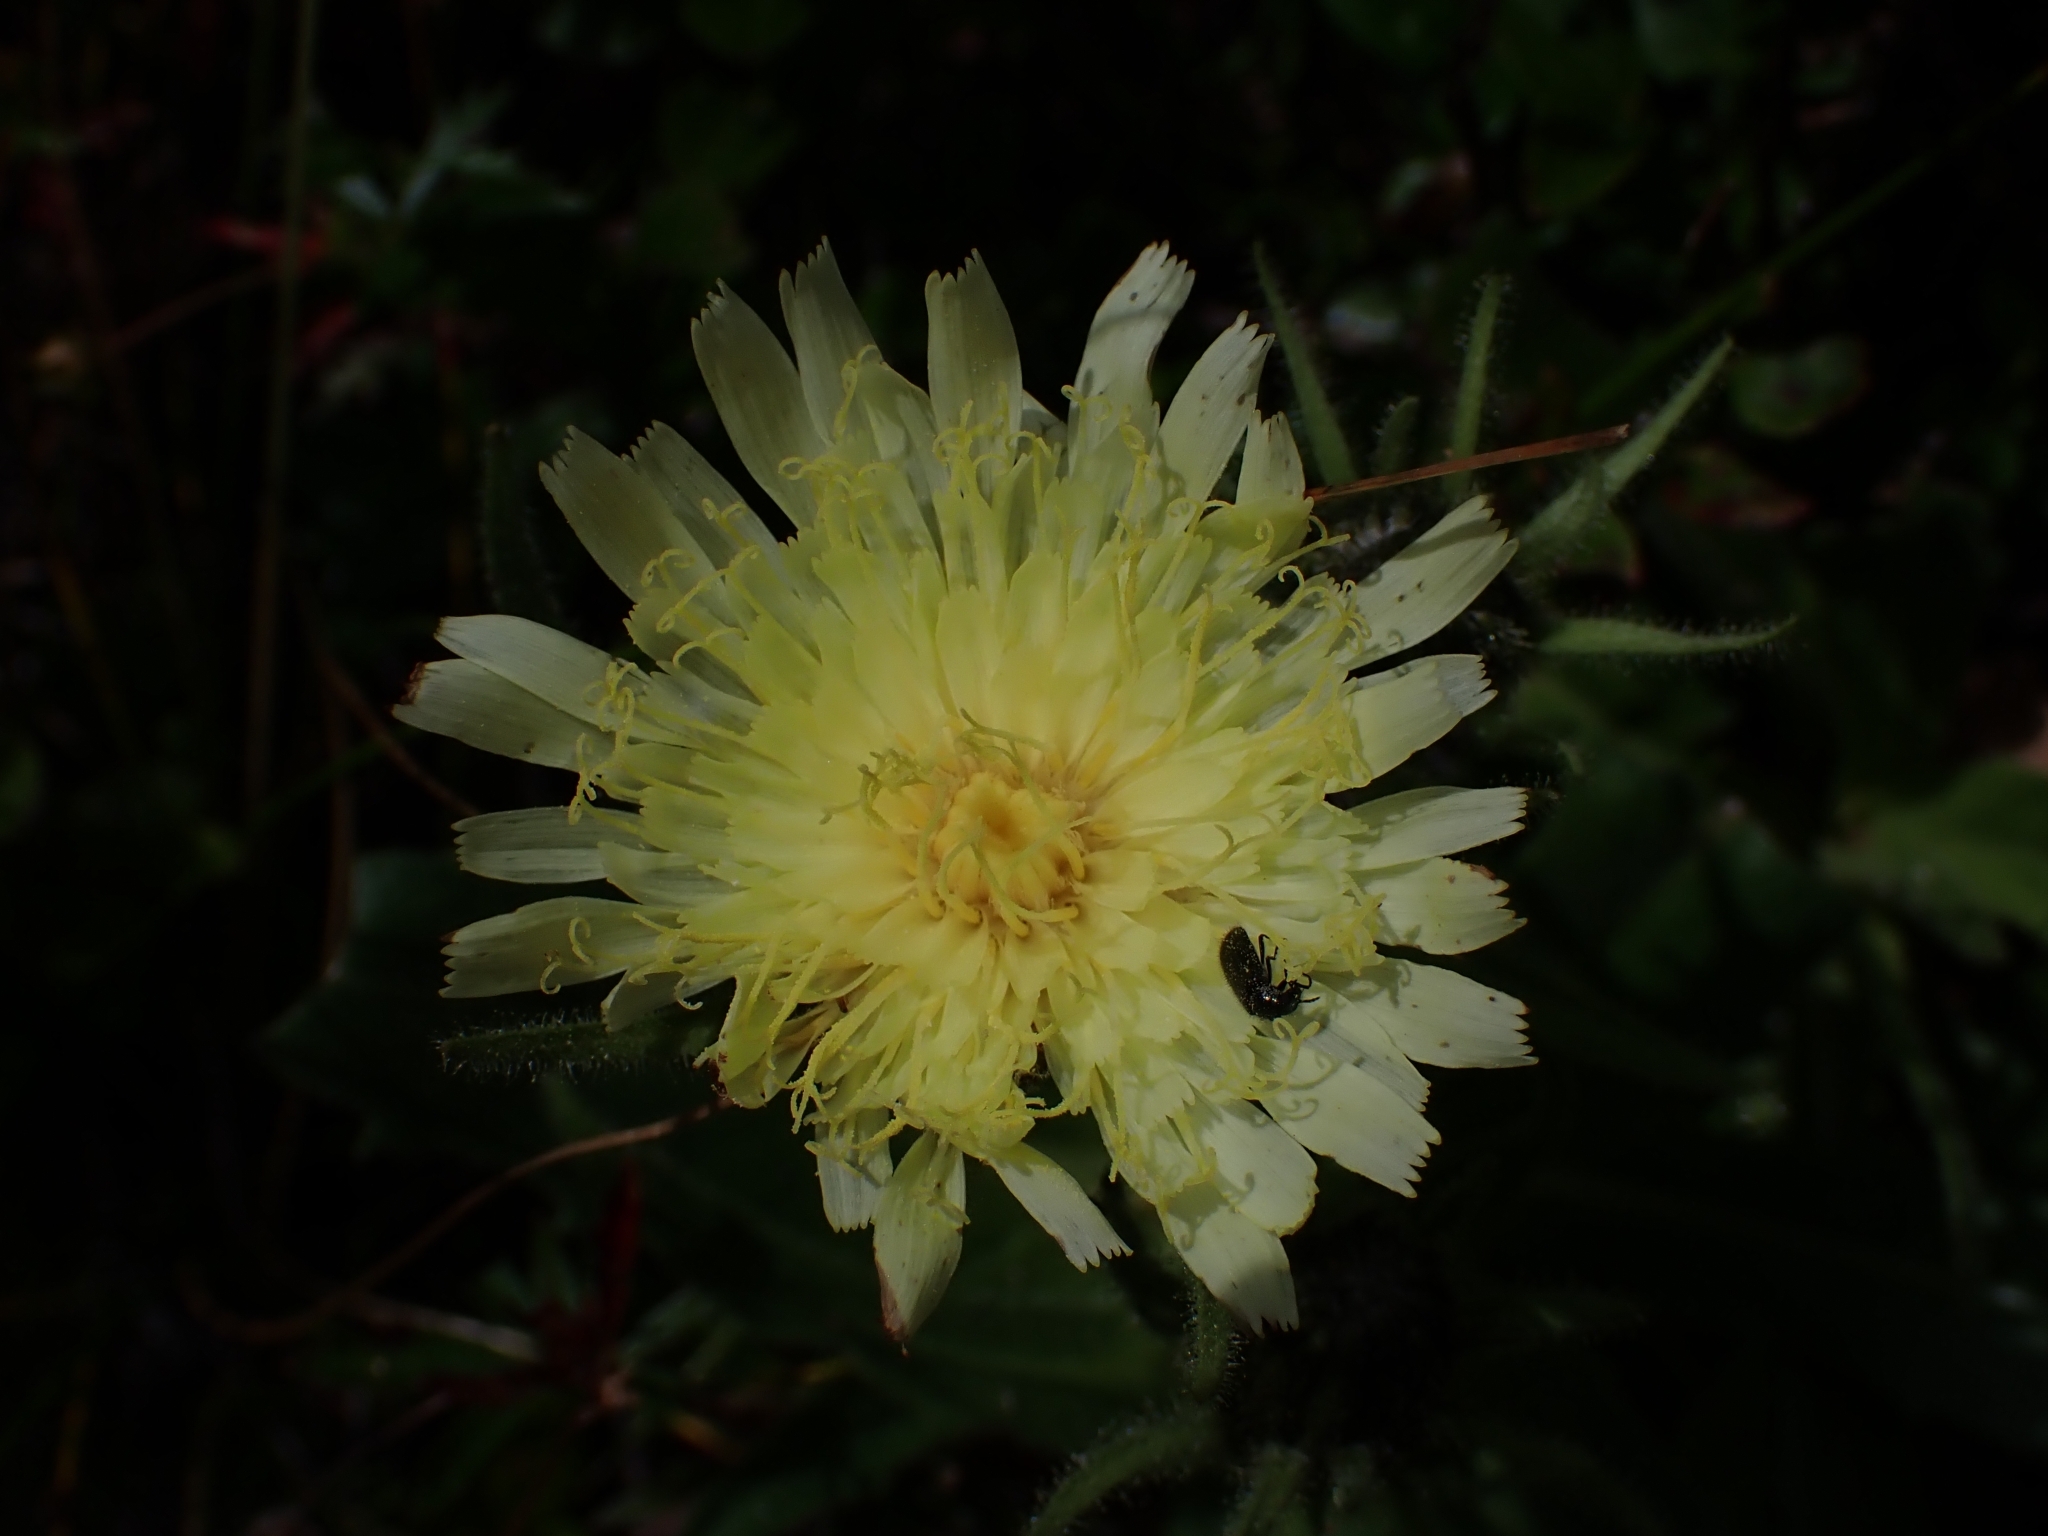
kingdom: Plantae
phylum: Tracheophyta
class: Magnoliopsida
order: Asterales
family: Asteraceae
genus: Schlagintweitia
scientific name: Schlagintweitia intybacea
